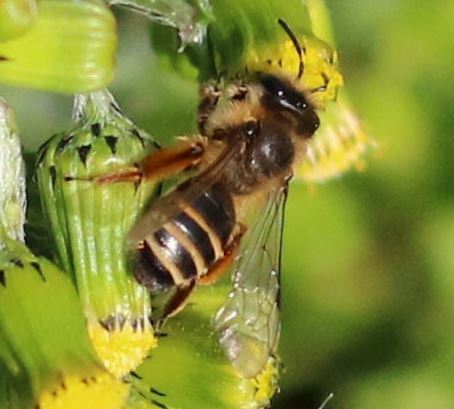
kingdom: Animalia
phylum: Arthropoda
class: Insecta
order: Hymenoptera
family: Andrenidae
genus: Andrena
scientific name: Andrena flavipes
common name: Yellow-legged mining bee
